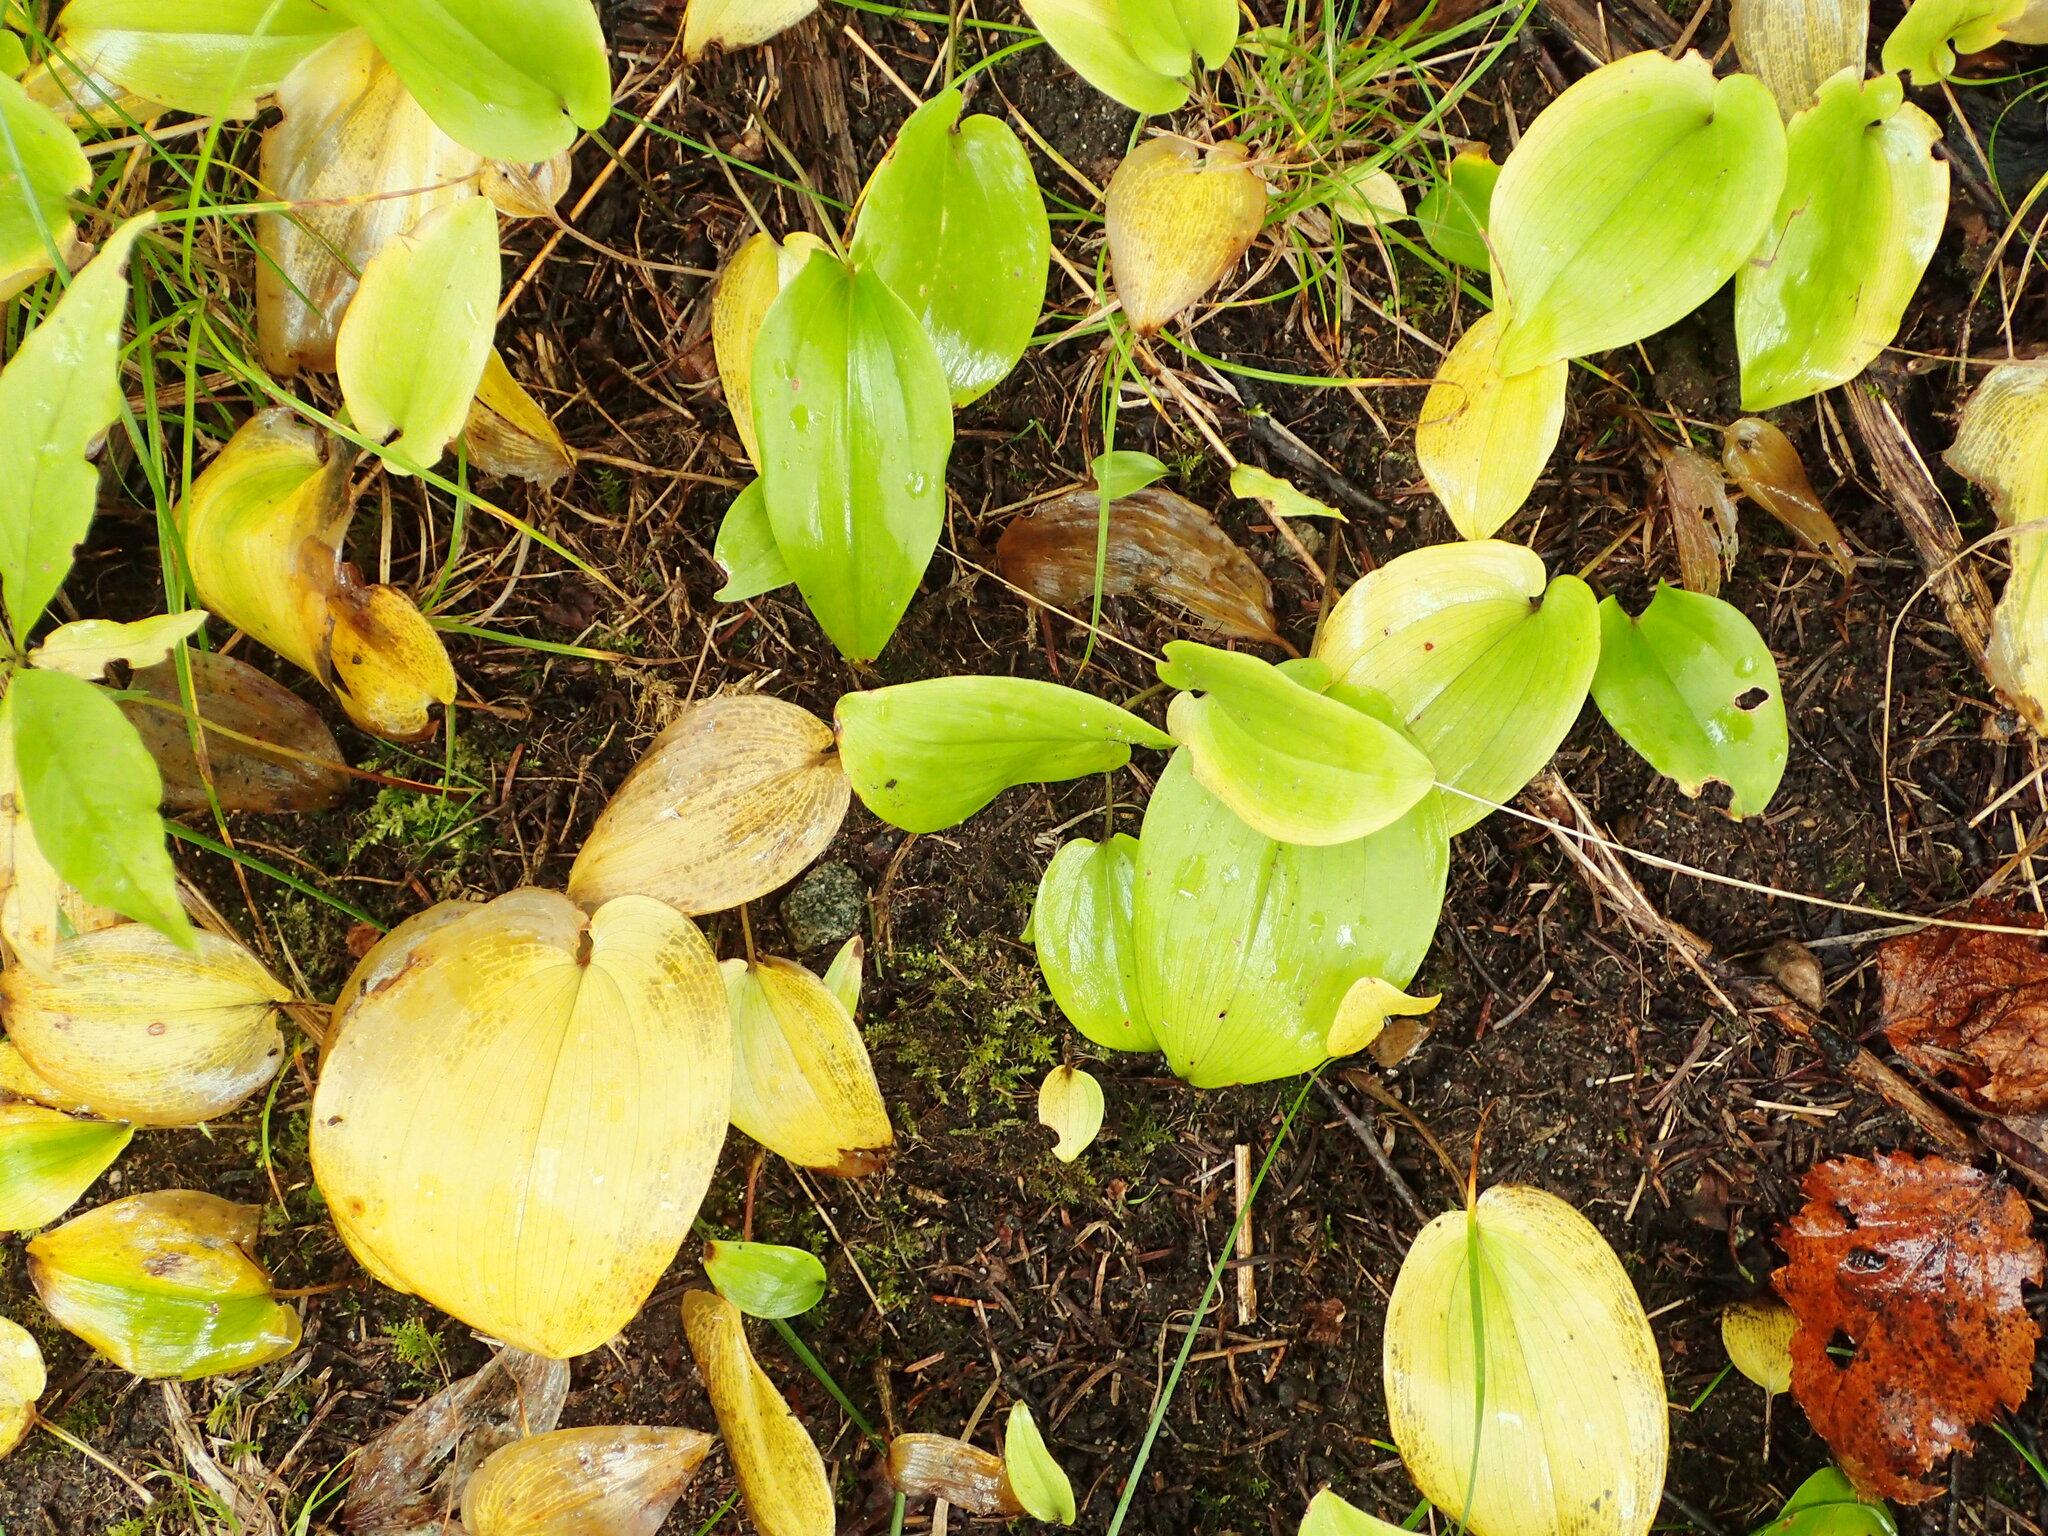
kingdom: Plantae
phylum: Tracheophyta
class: Liliopsida
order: Asparagales
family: Asparagaceae
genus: Maianthemum
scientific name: Maianthemum canadense
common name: False lily-of-the-valley
